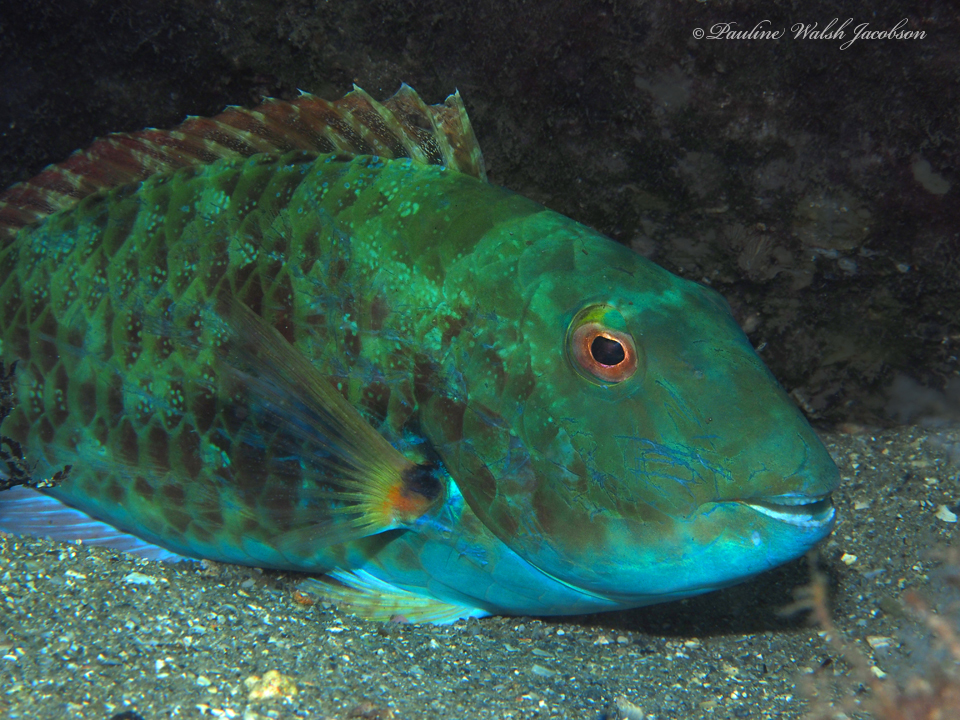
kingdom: Animalia
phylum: Chordata
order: Perciformes
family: Scaridae
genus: Sparisoma
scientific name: Sparisoma chrysopterum
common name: Redtail parrotfish
